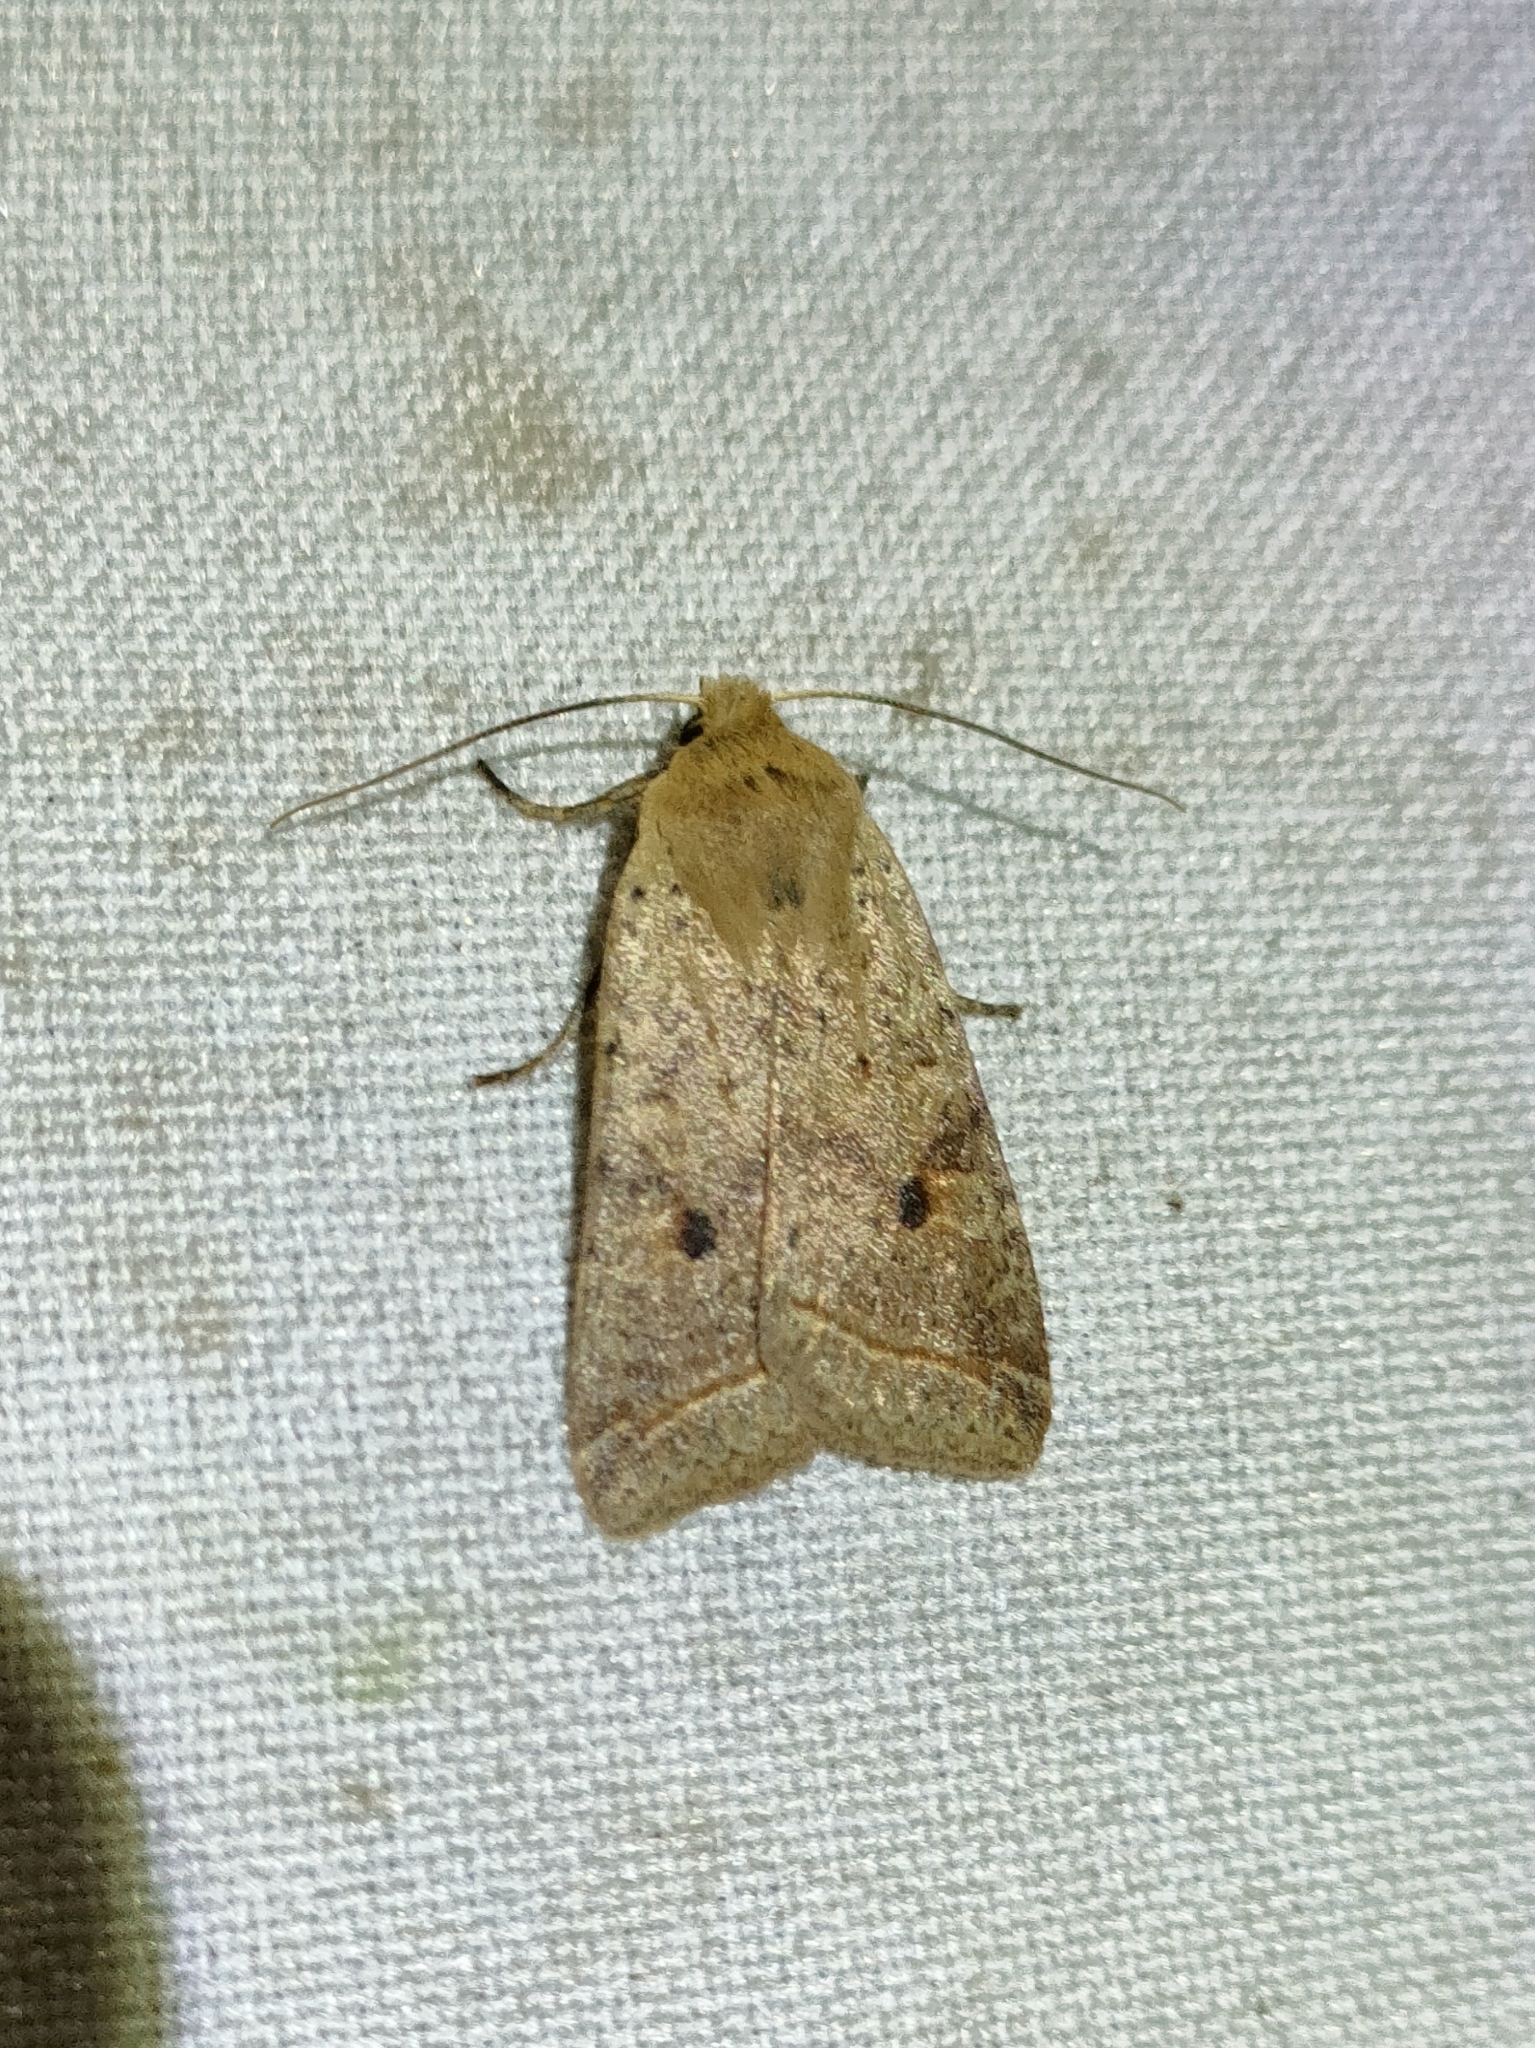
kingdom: Animalia
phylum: Arthropoda
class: Insecta
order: Lepidoptera
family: Noctuidae
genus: Agrochola
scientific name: Agrochola blidaensis
